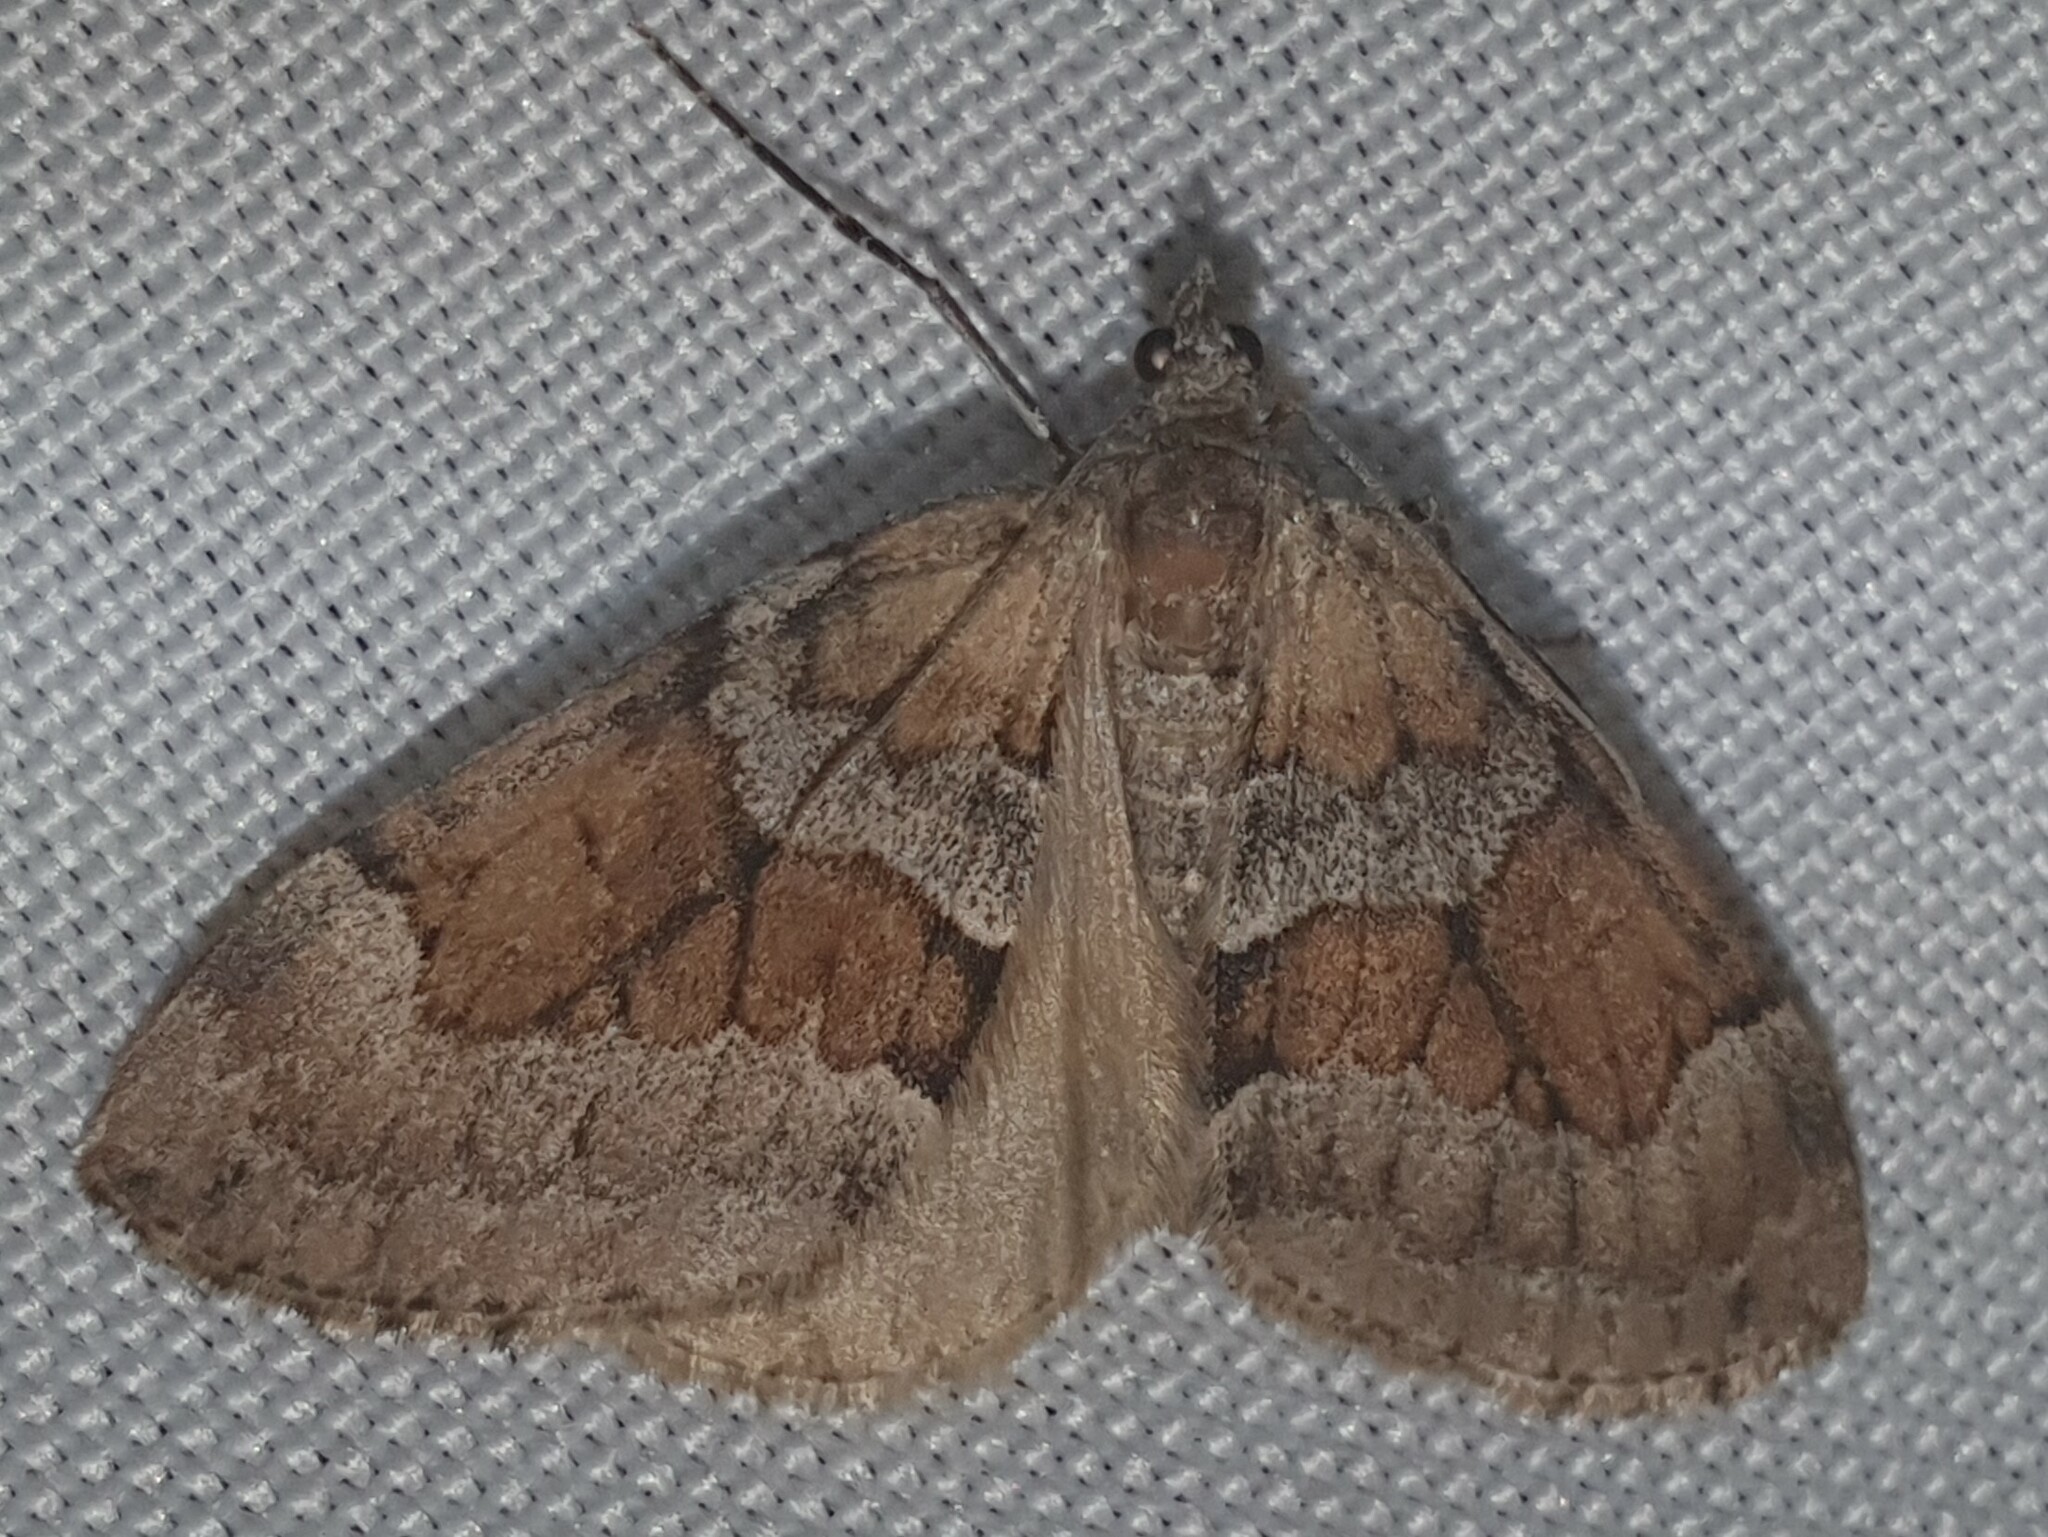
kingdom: Animalia
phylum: Arthropoda
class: Insecta
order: Lepidoptera
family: Geometridae
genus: Thera
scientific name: Thera obeliscata
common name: Grey pine carpet
